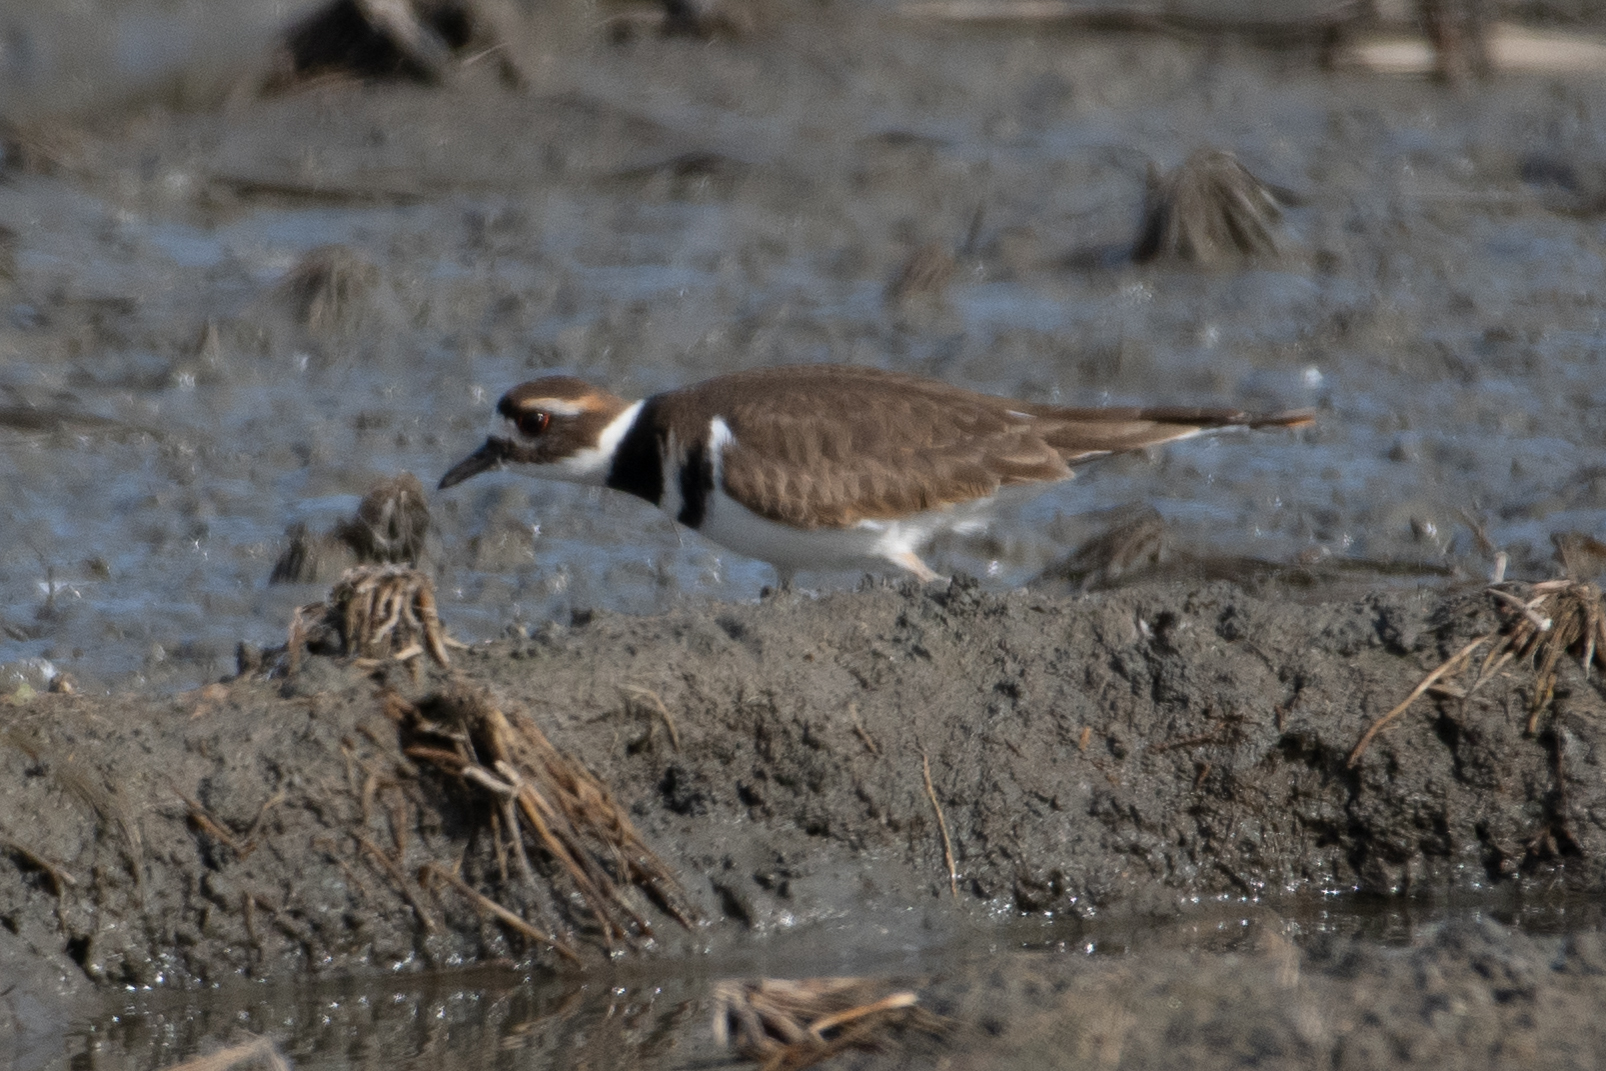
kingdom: Animalia
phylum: Chordata
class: Aves
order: Charadriiformes
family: Charadriidae
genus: Charadrius
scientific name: Charadrius vociferus
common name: Killdeer
